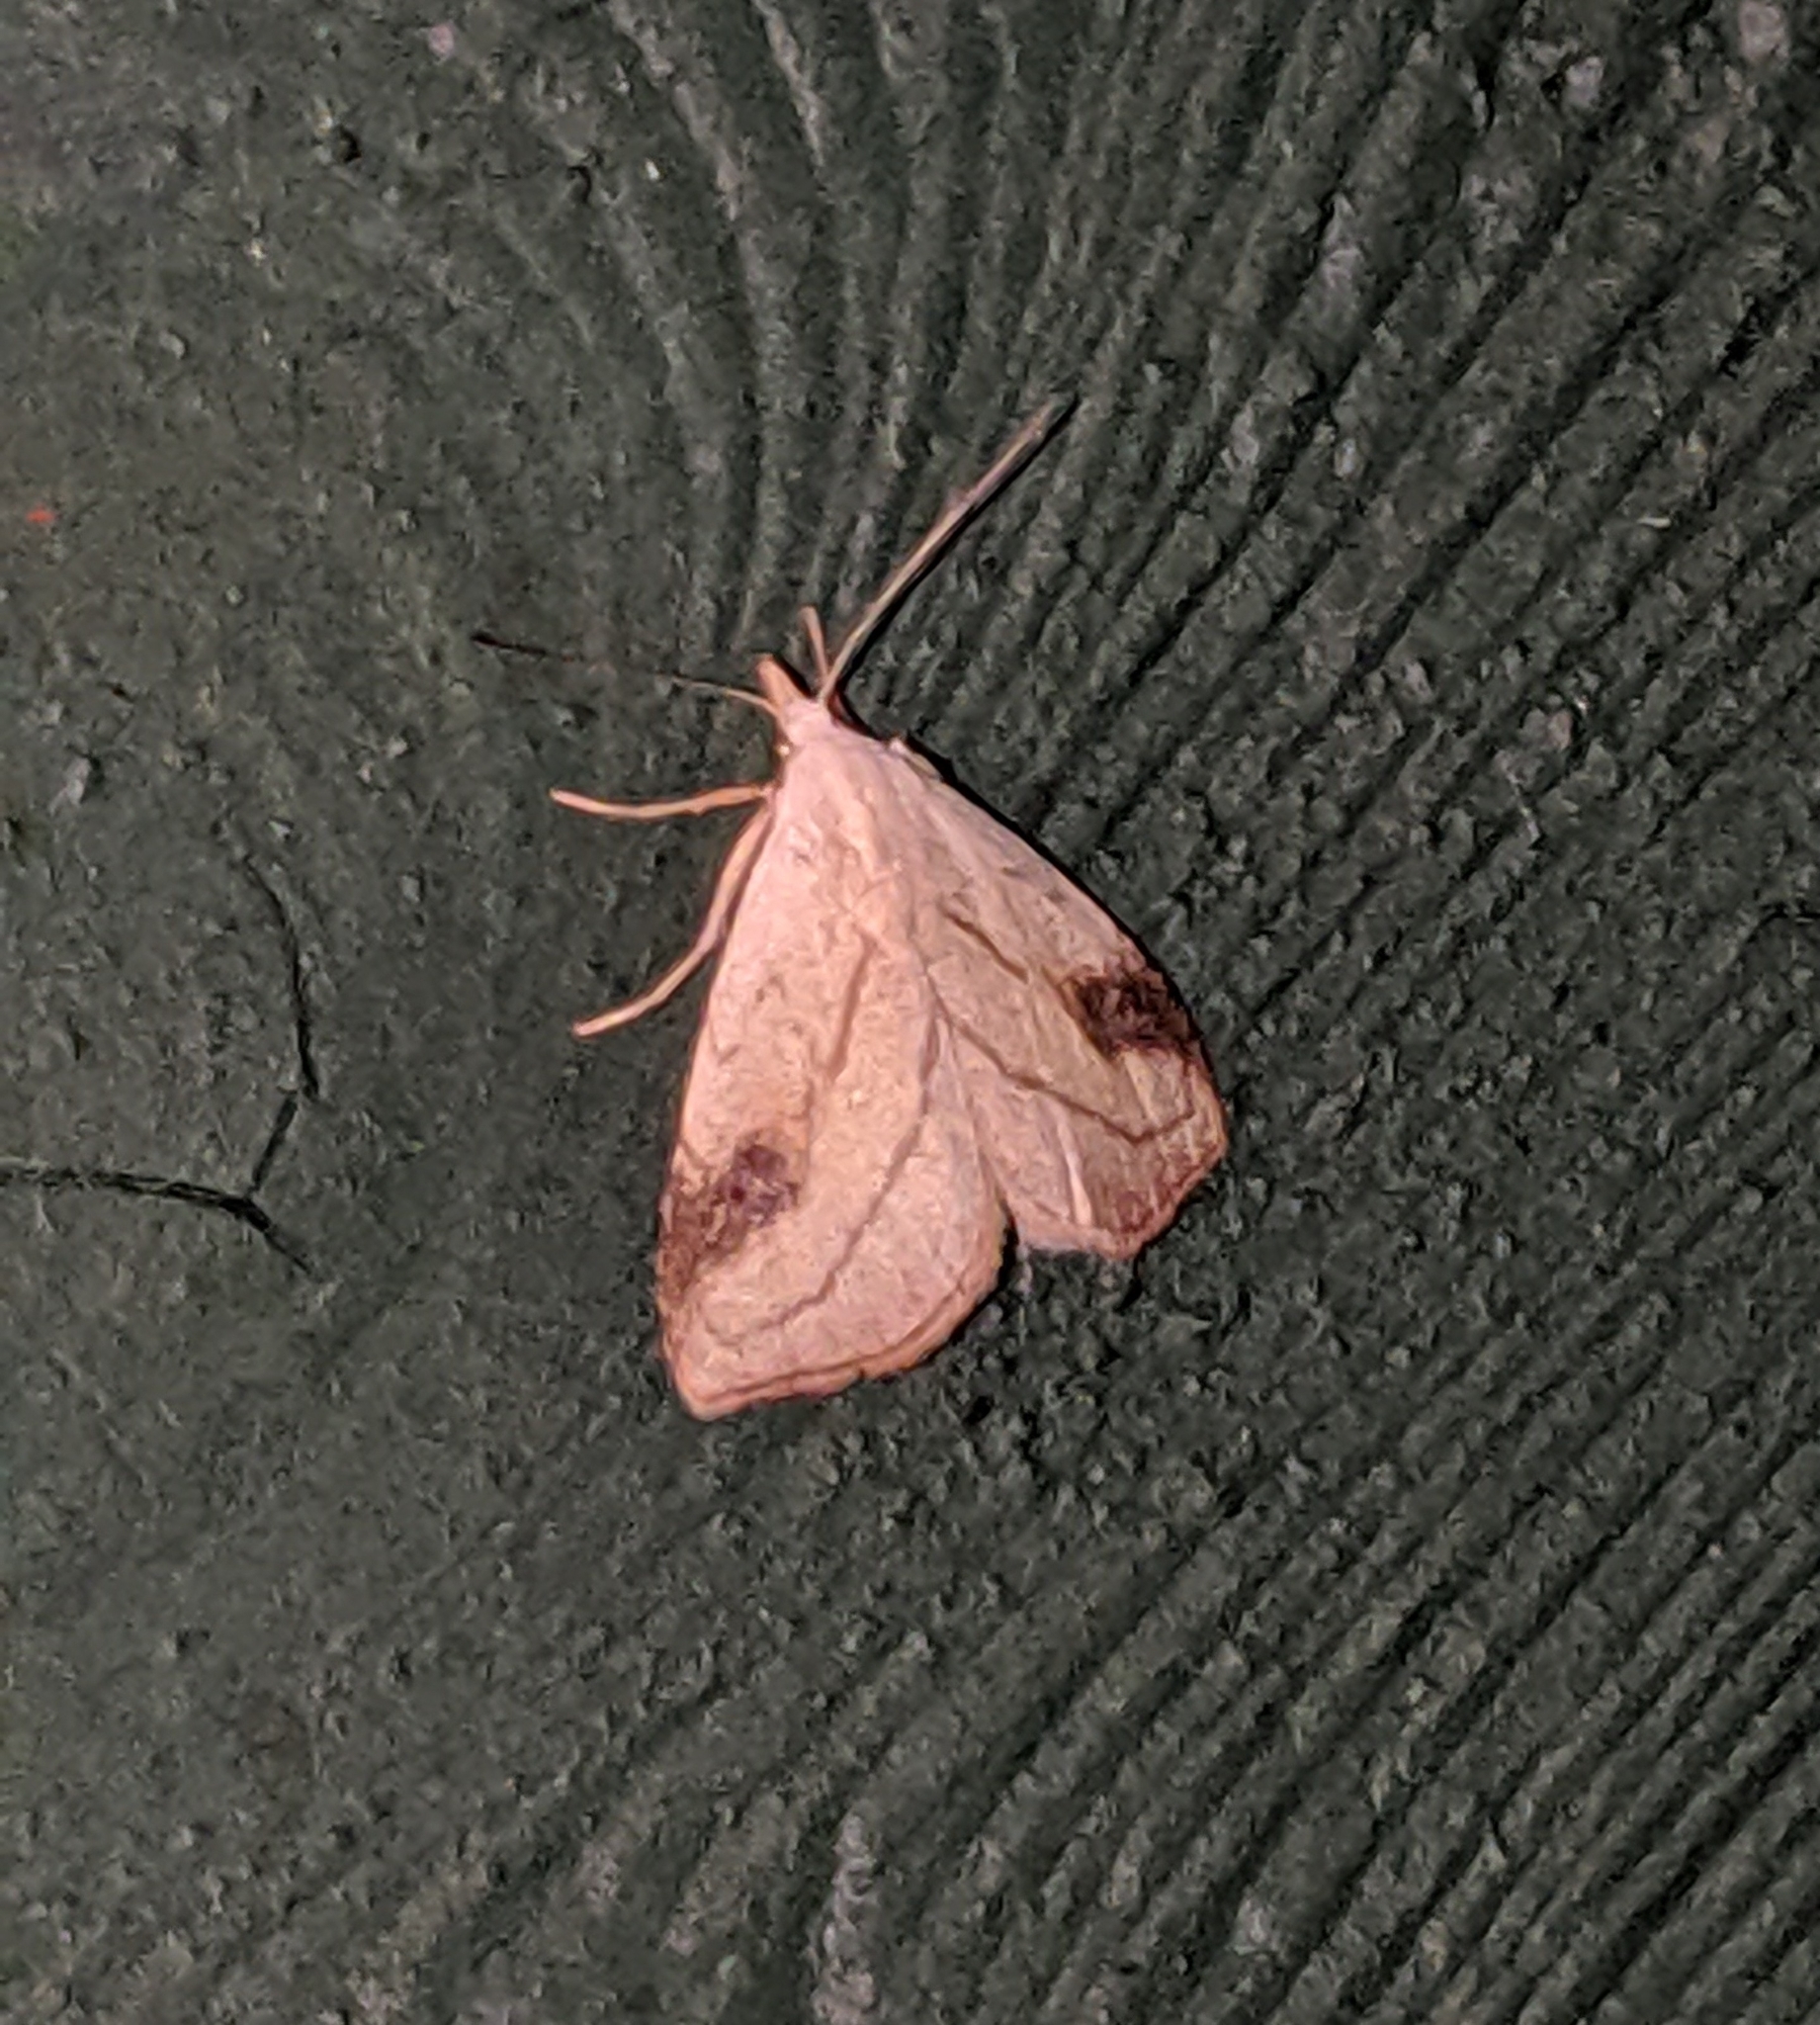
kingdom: Animalia
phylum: Arthropoda
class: Insecta
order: Lepidoptera
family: Erebidae
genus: Rivula
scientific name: Rivula propinqualis
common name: Spotted grass moth
